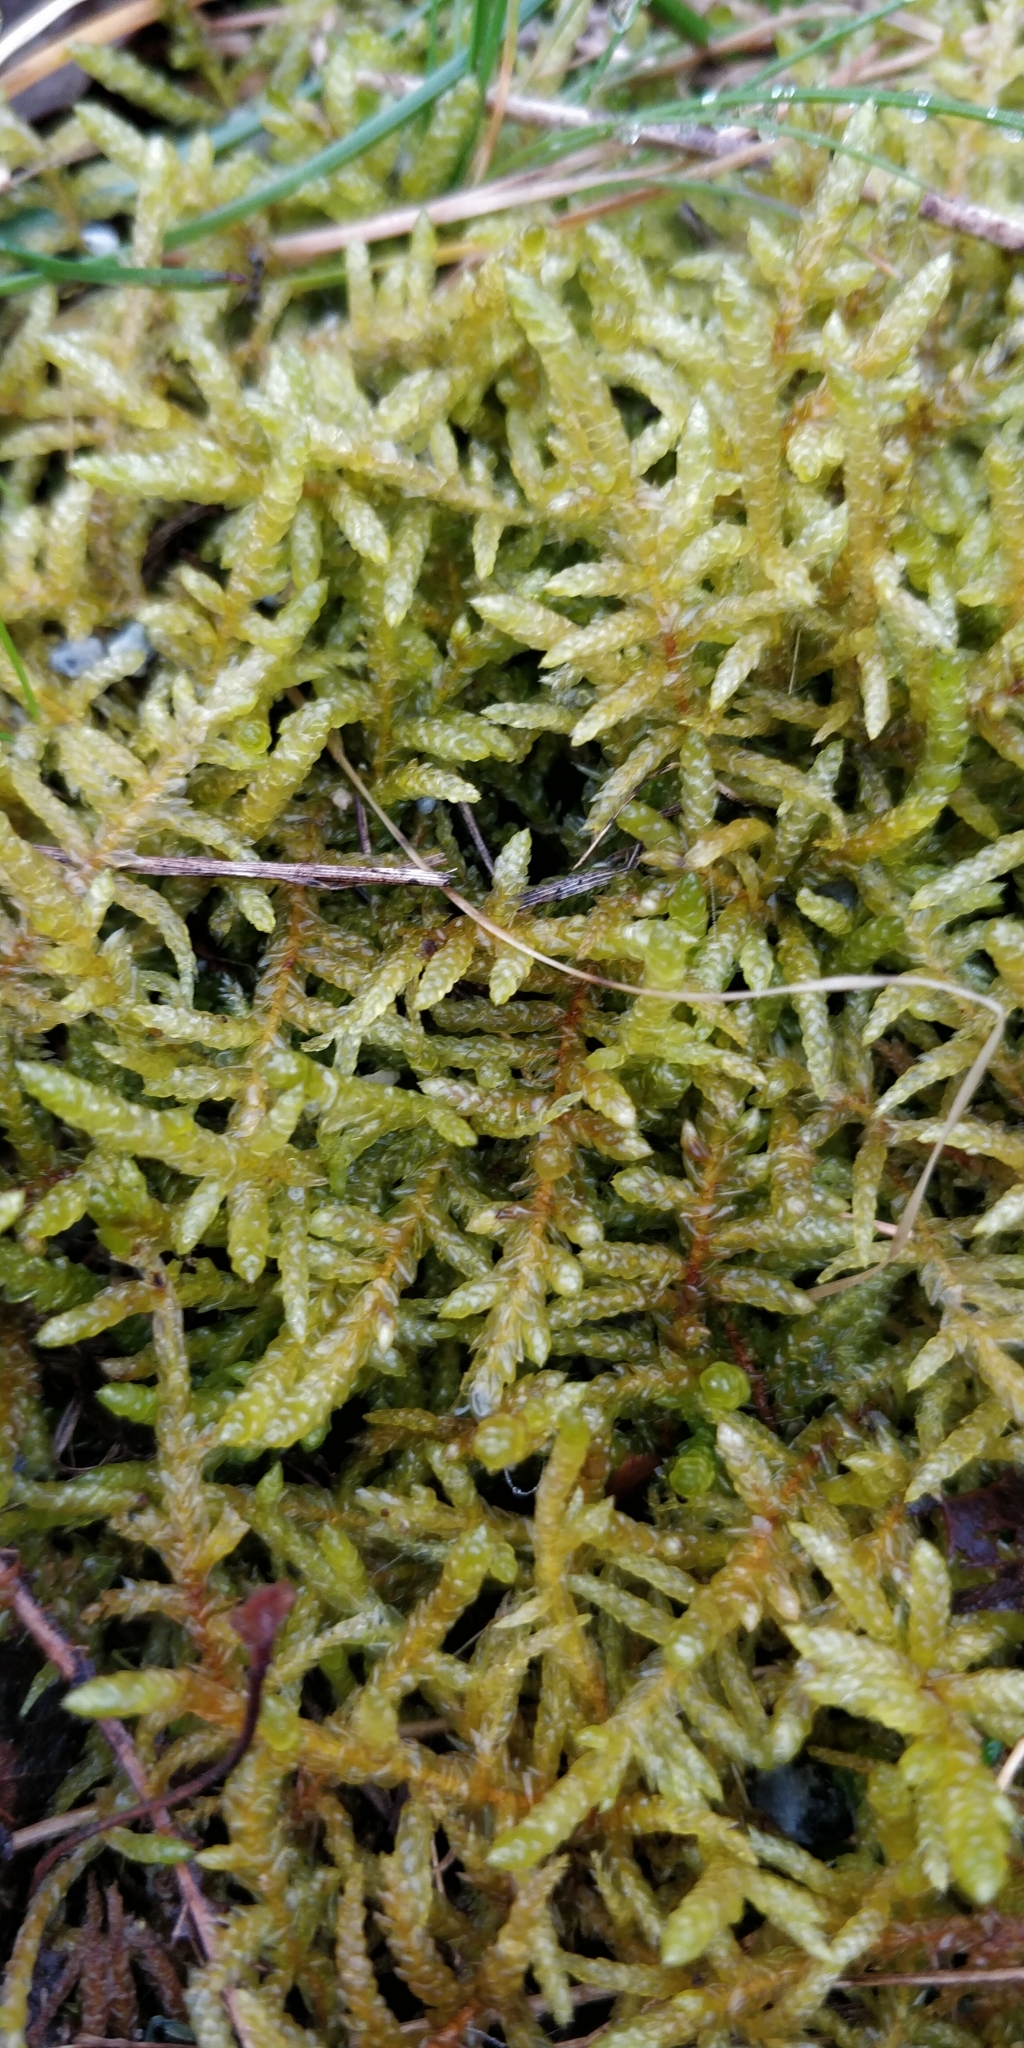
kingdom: Plantae
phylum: Bryophyta
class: Bryopsida
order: Hypnales
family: Brachytheciaceae
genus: Pseudoscleropodium
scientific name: Pseudoscleropodium purum
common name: Neat feather-moss
